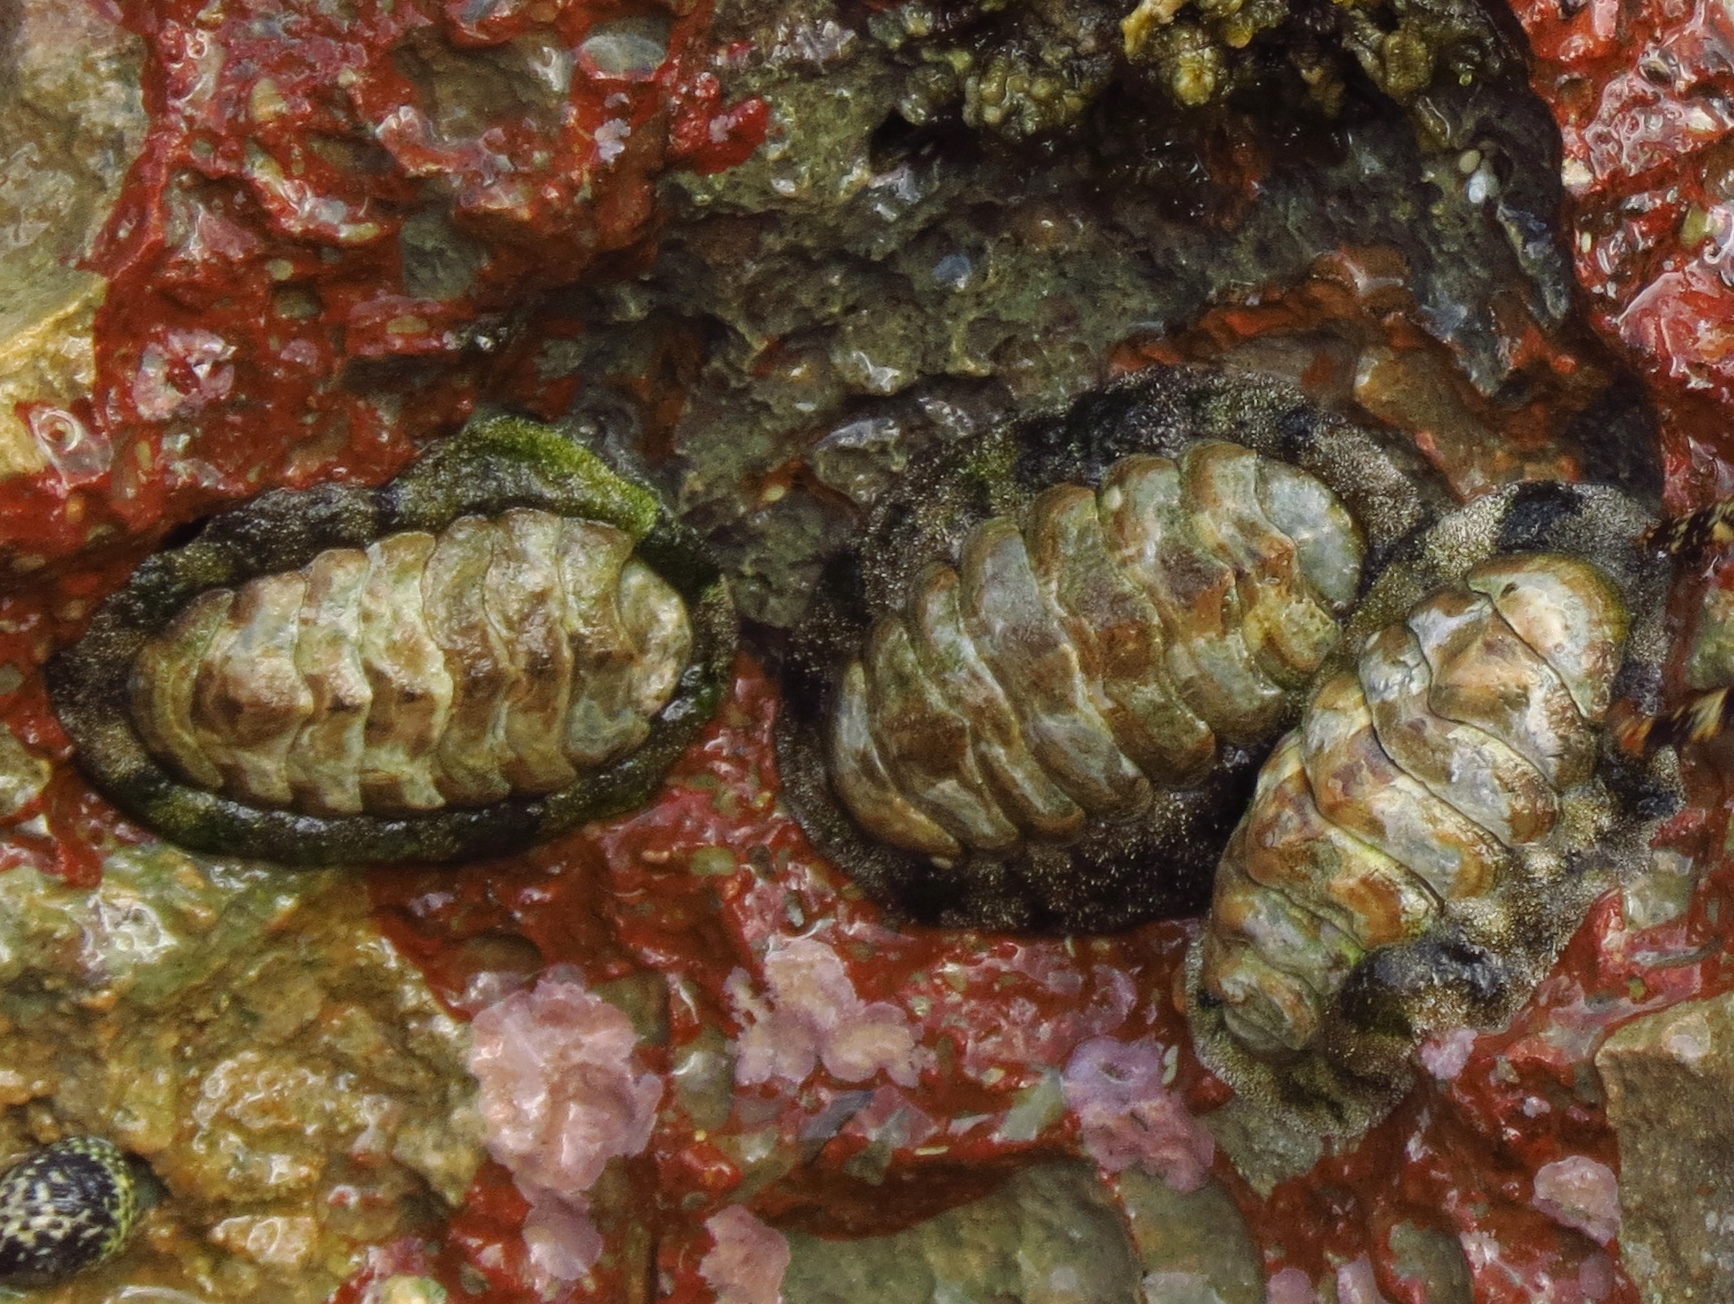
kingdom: Animalia
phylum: Mollusca
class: Polyplacophora
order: Chitonida
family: Chitonidae
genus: Acanthopleura
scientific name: Acanthopleura granulata
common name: West indian fuzzy chiton
